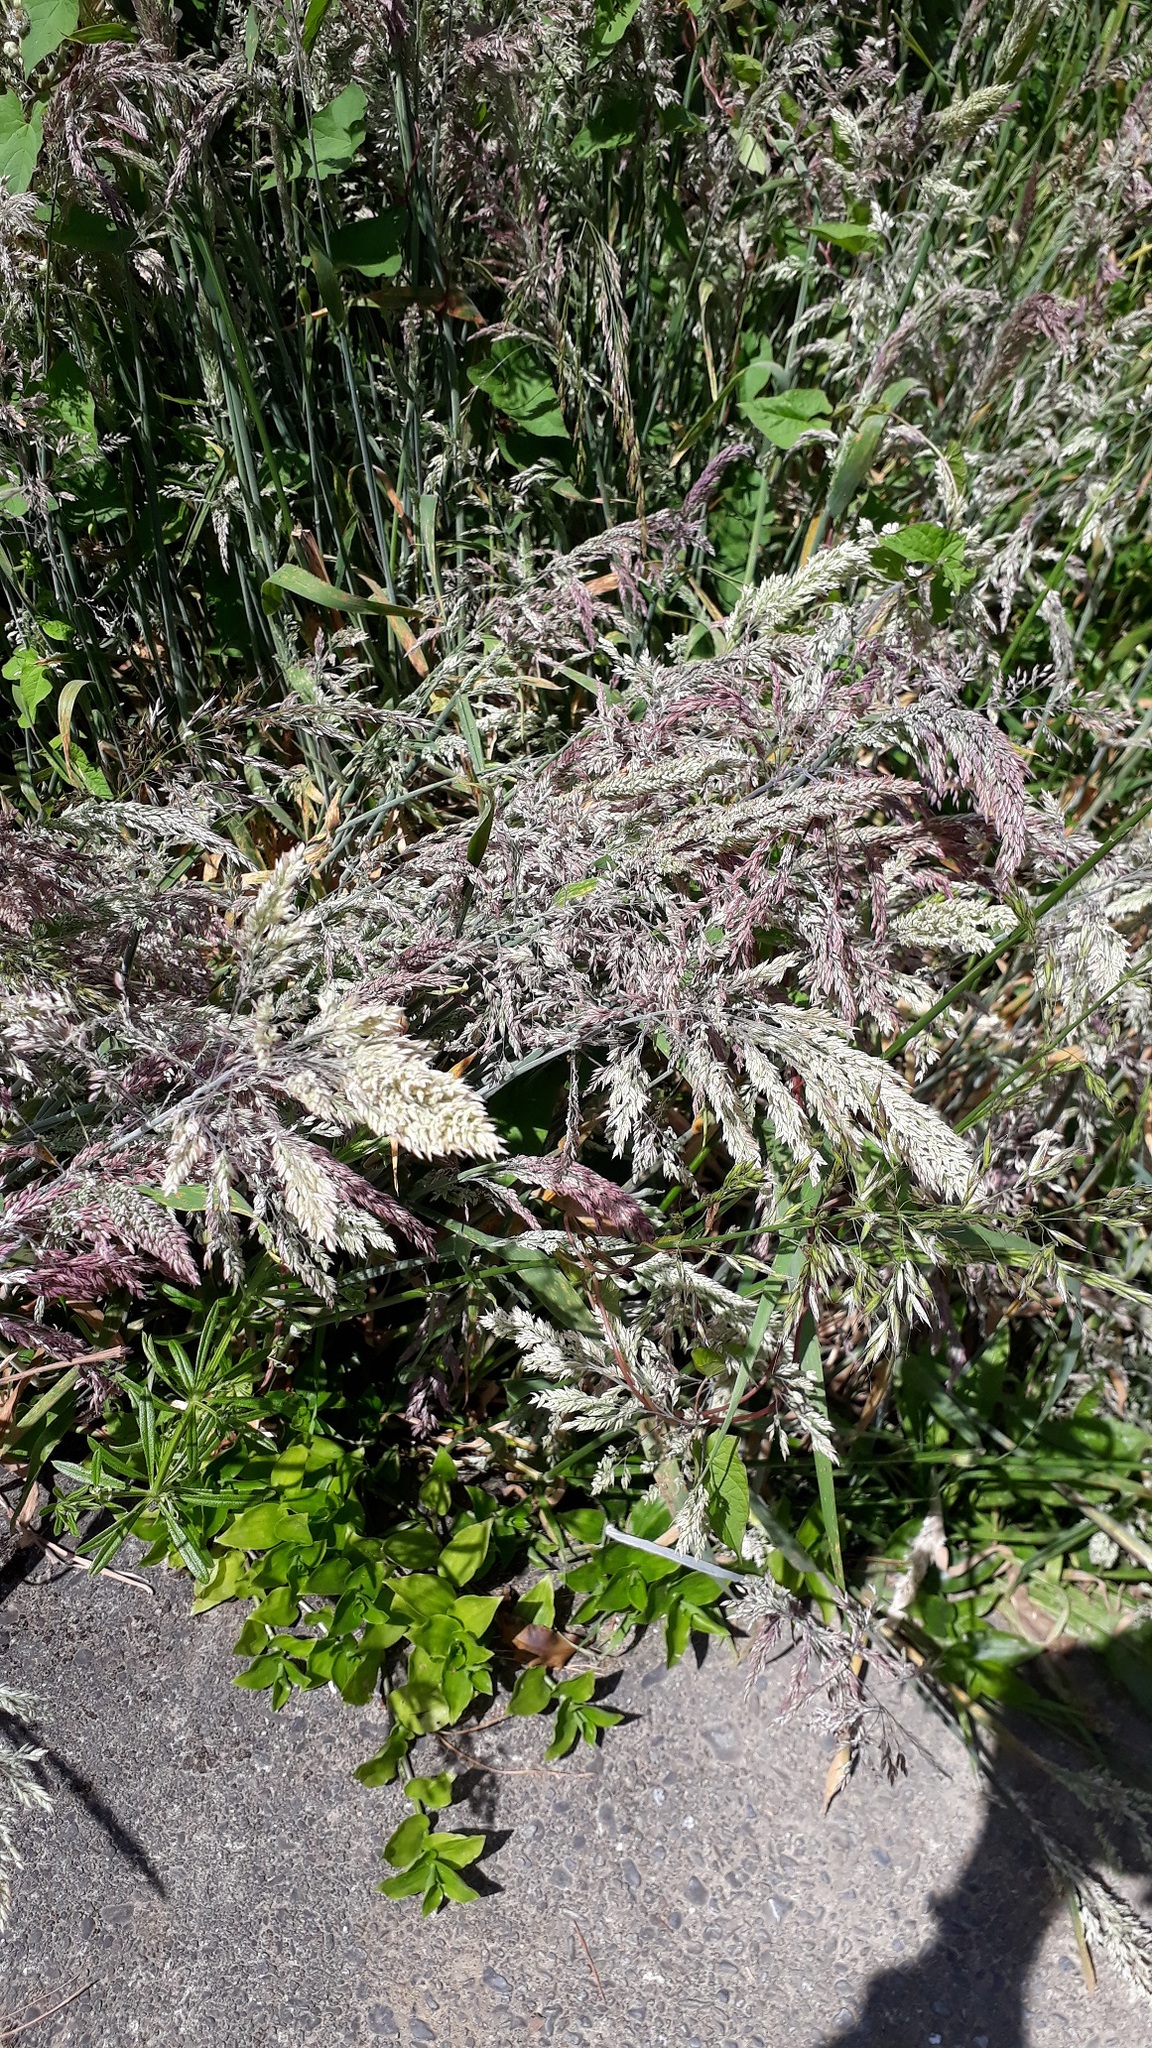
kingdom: Plantae
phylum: Tracheophyta
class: Liliopsida
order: Poales
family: Poaceae
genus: Holcus
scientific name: Holcus lanatus
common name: Yorkshire-fog
